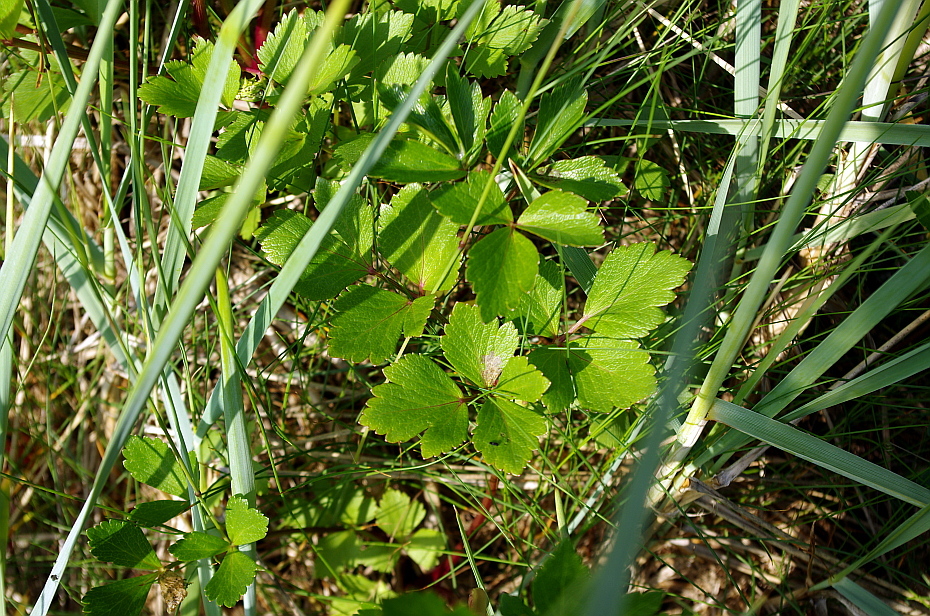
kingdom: Plantae
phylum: Tracheophyta
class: Magnoliopsida
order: Apiales
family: Apiaceae
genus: Ligusticum
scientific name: Ligusticum scothicum
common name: Beach lovage
